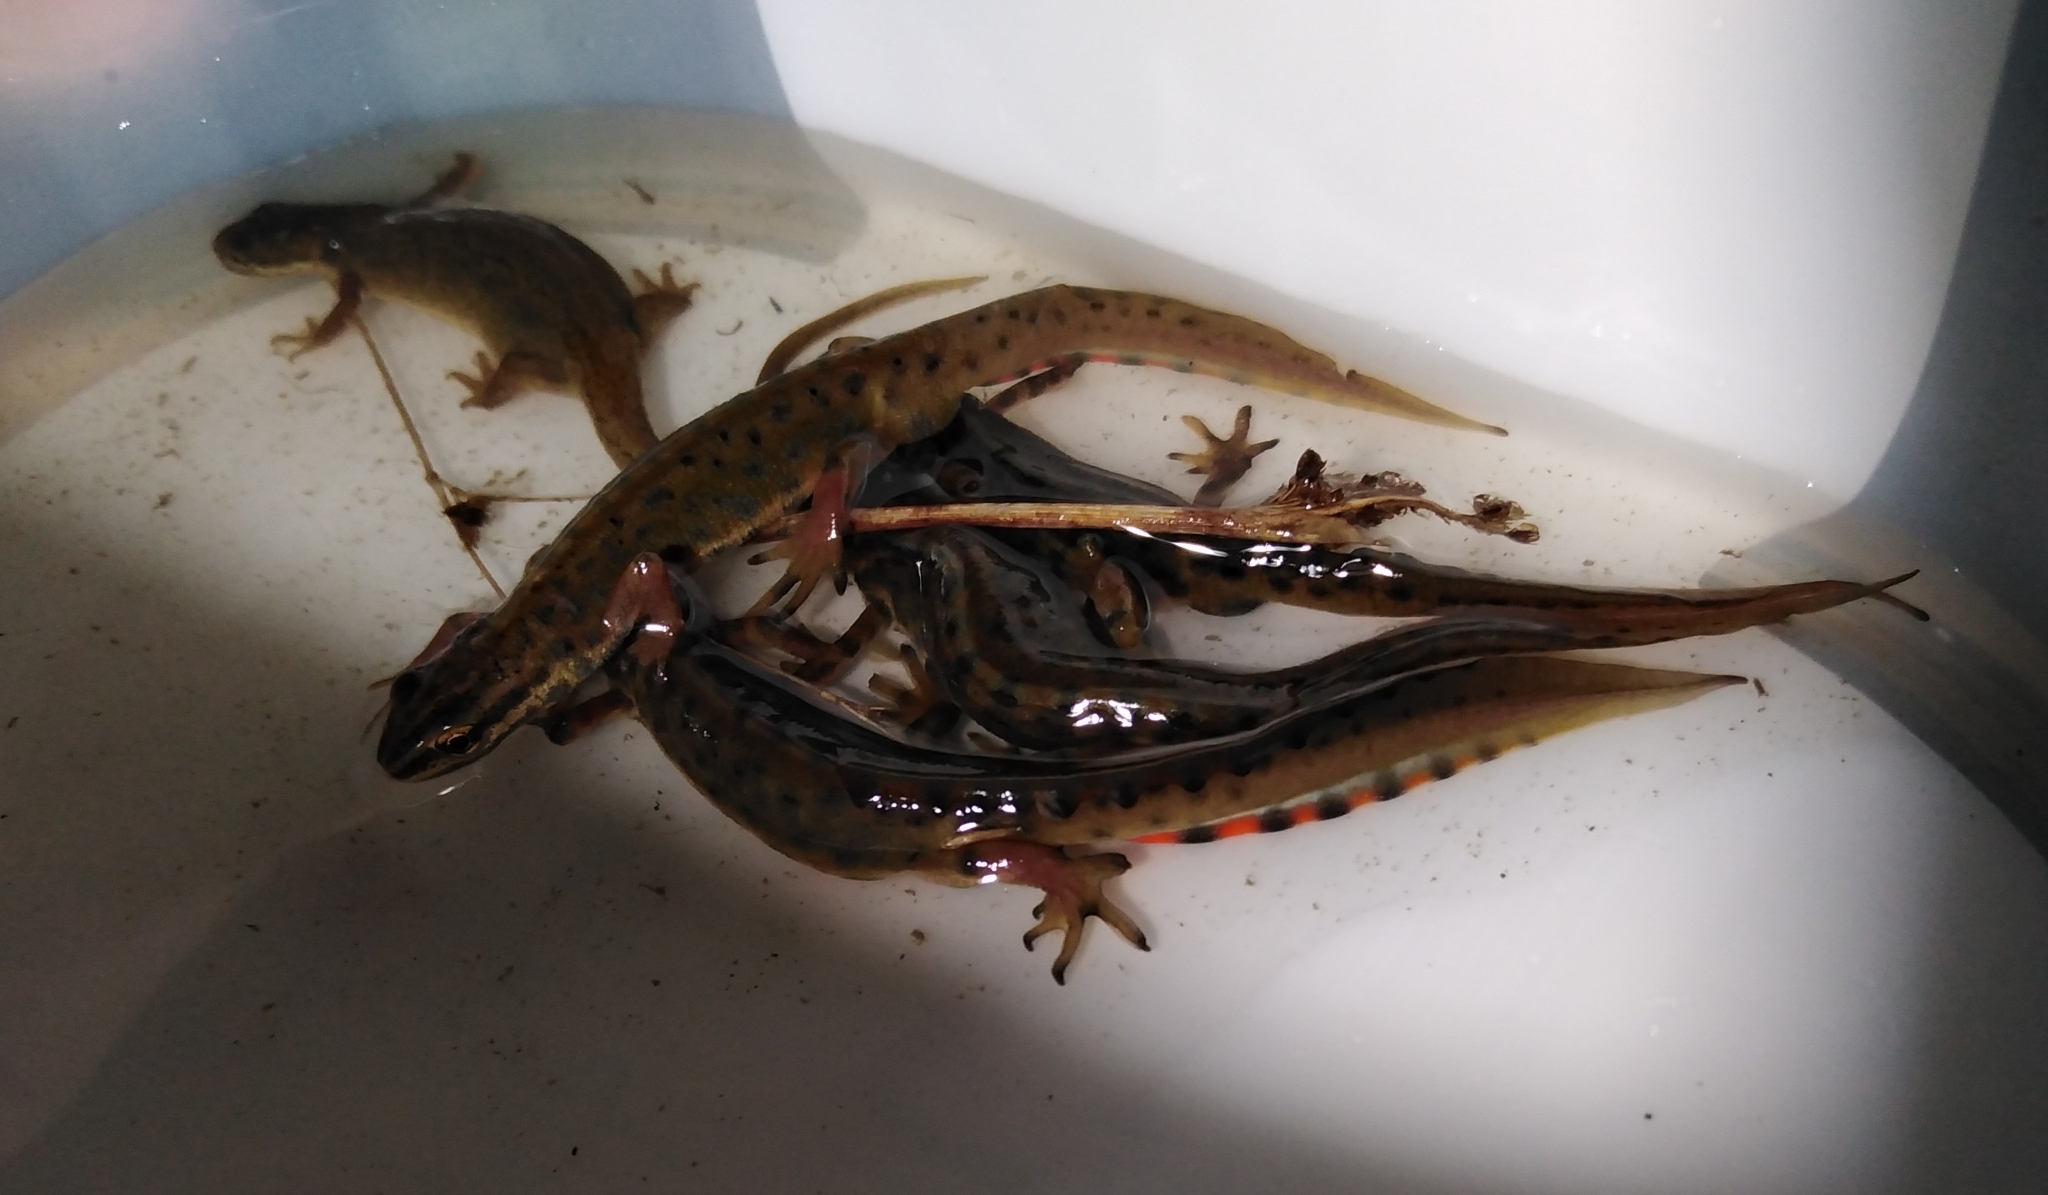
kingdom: Animalia
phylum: Chordata
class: Amphibia
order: Caudata
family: Salamandridae
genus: Lissotriton
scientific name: Lissotriton vulgaris
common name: Smooth newt
